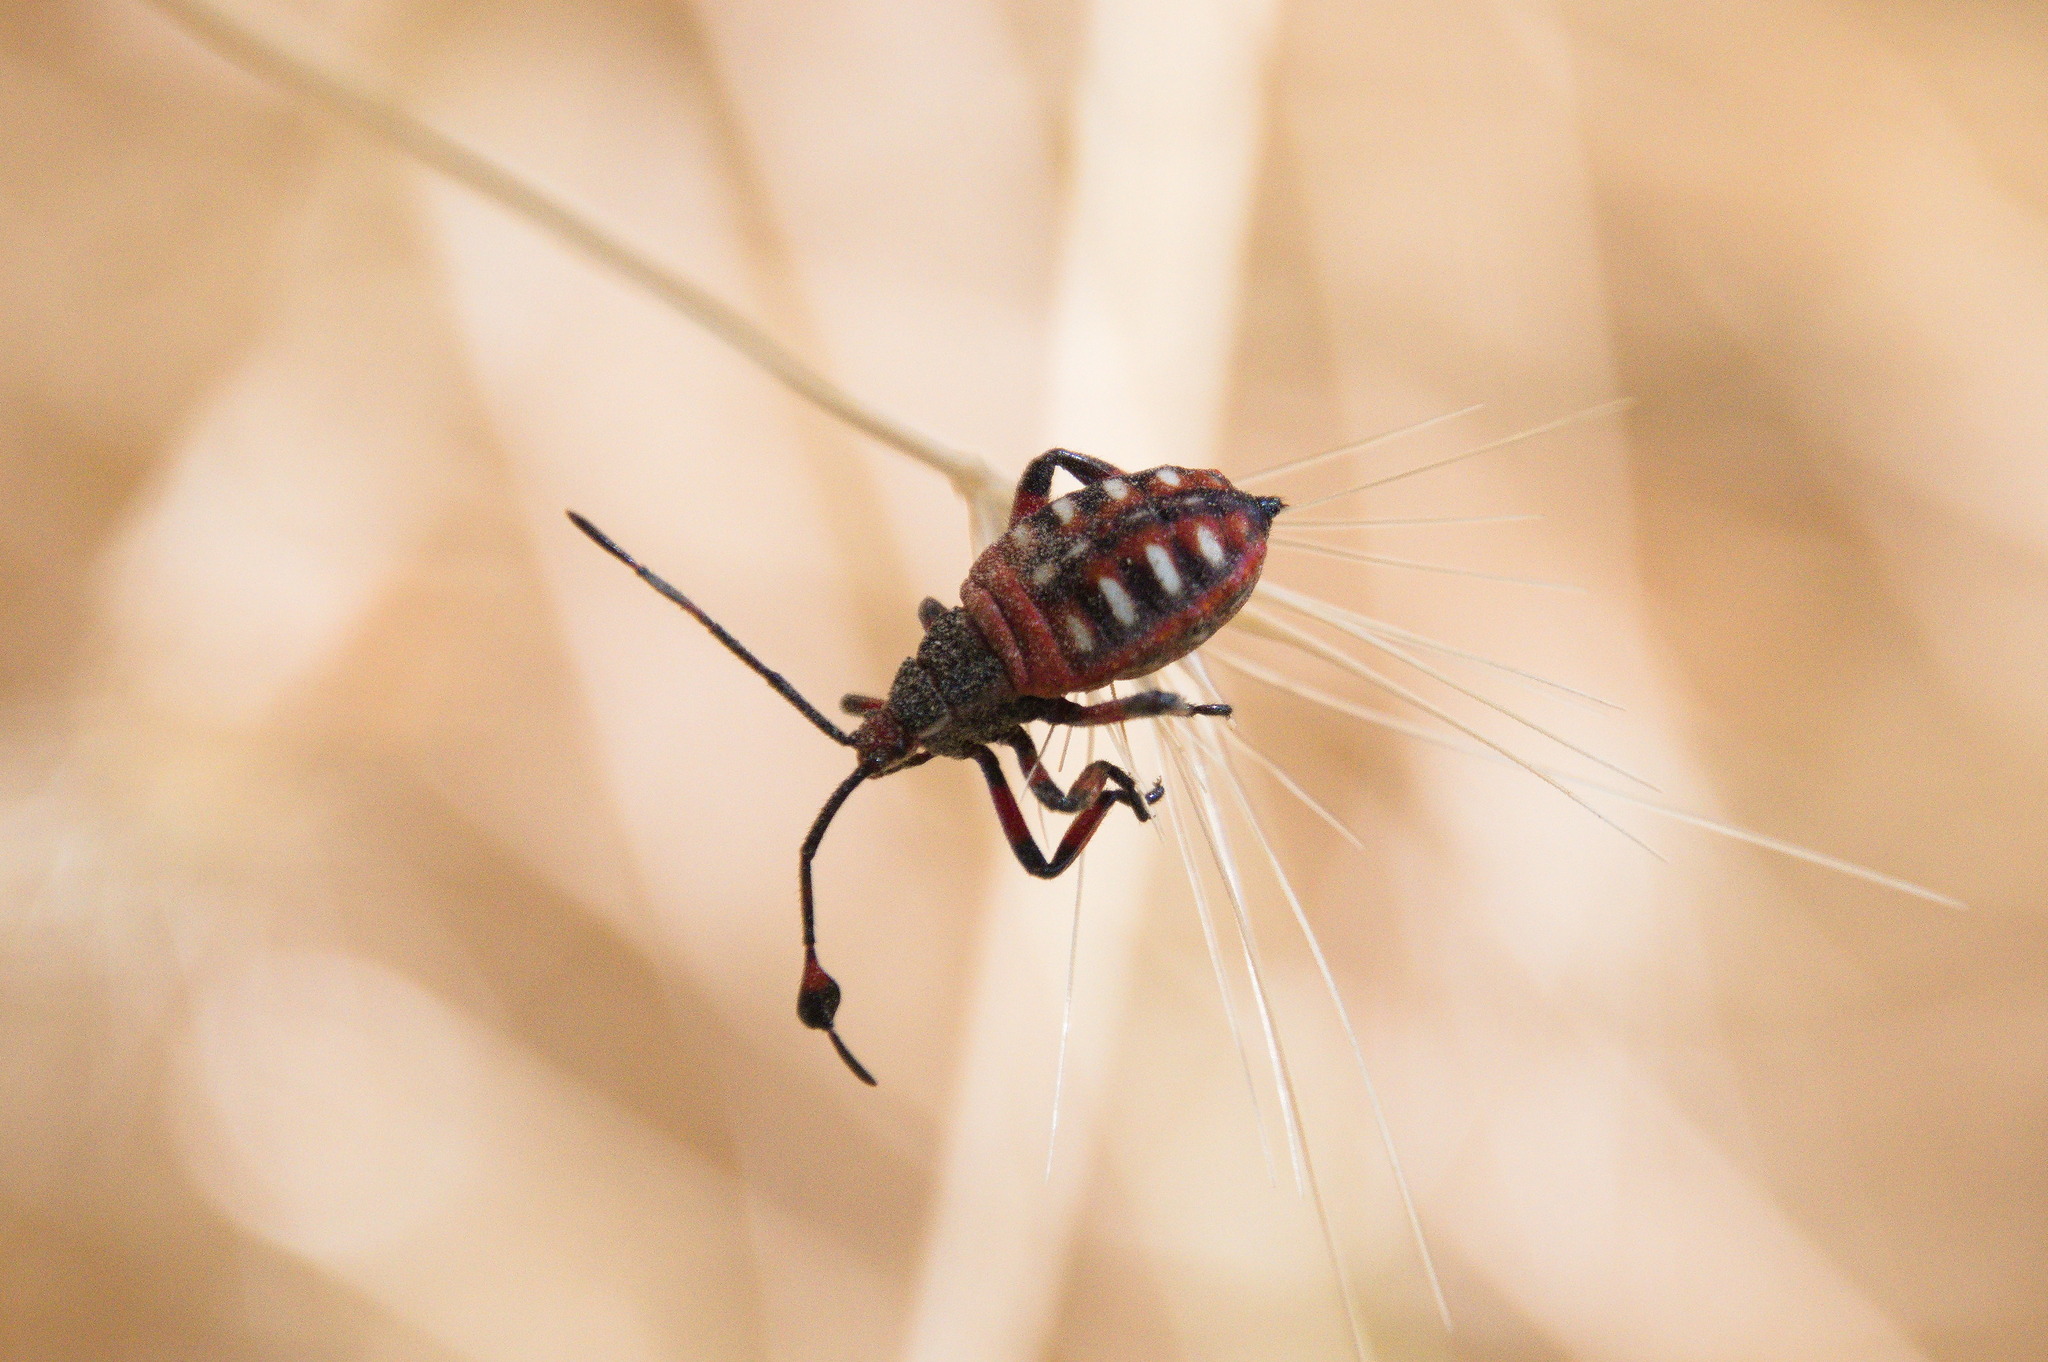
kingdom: Animalia
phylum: Arthropoda
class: Insecta
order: Hemiptera
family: Coreidae
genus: Thasus
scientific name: Thasus neocalifornicus
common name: Giant mesquite bug
